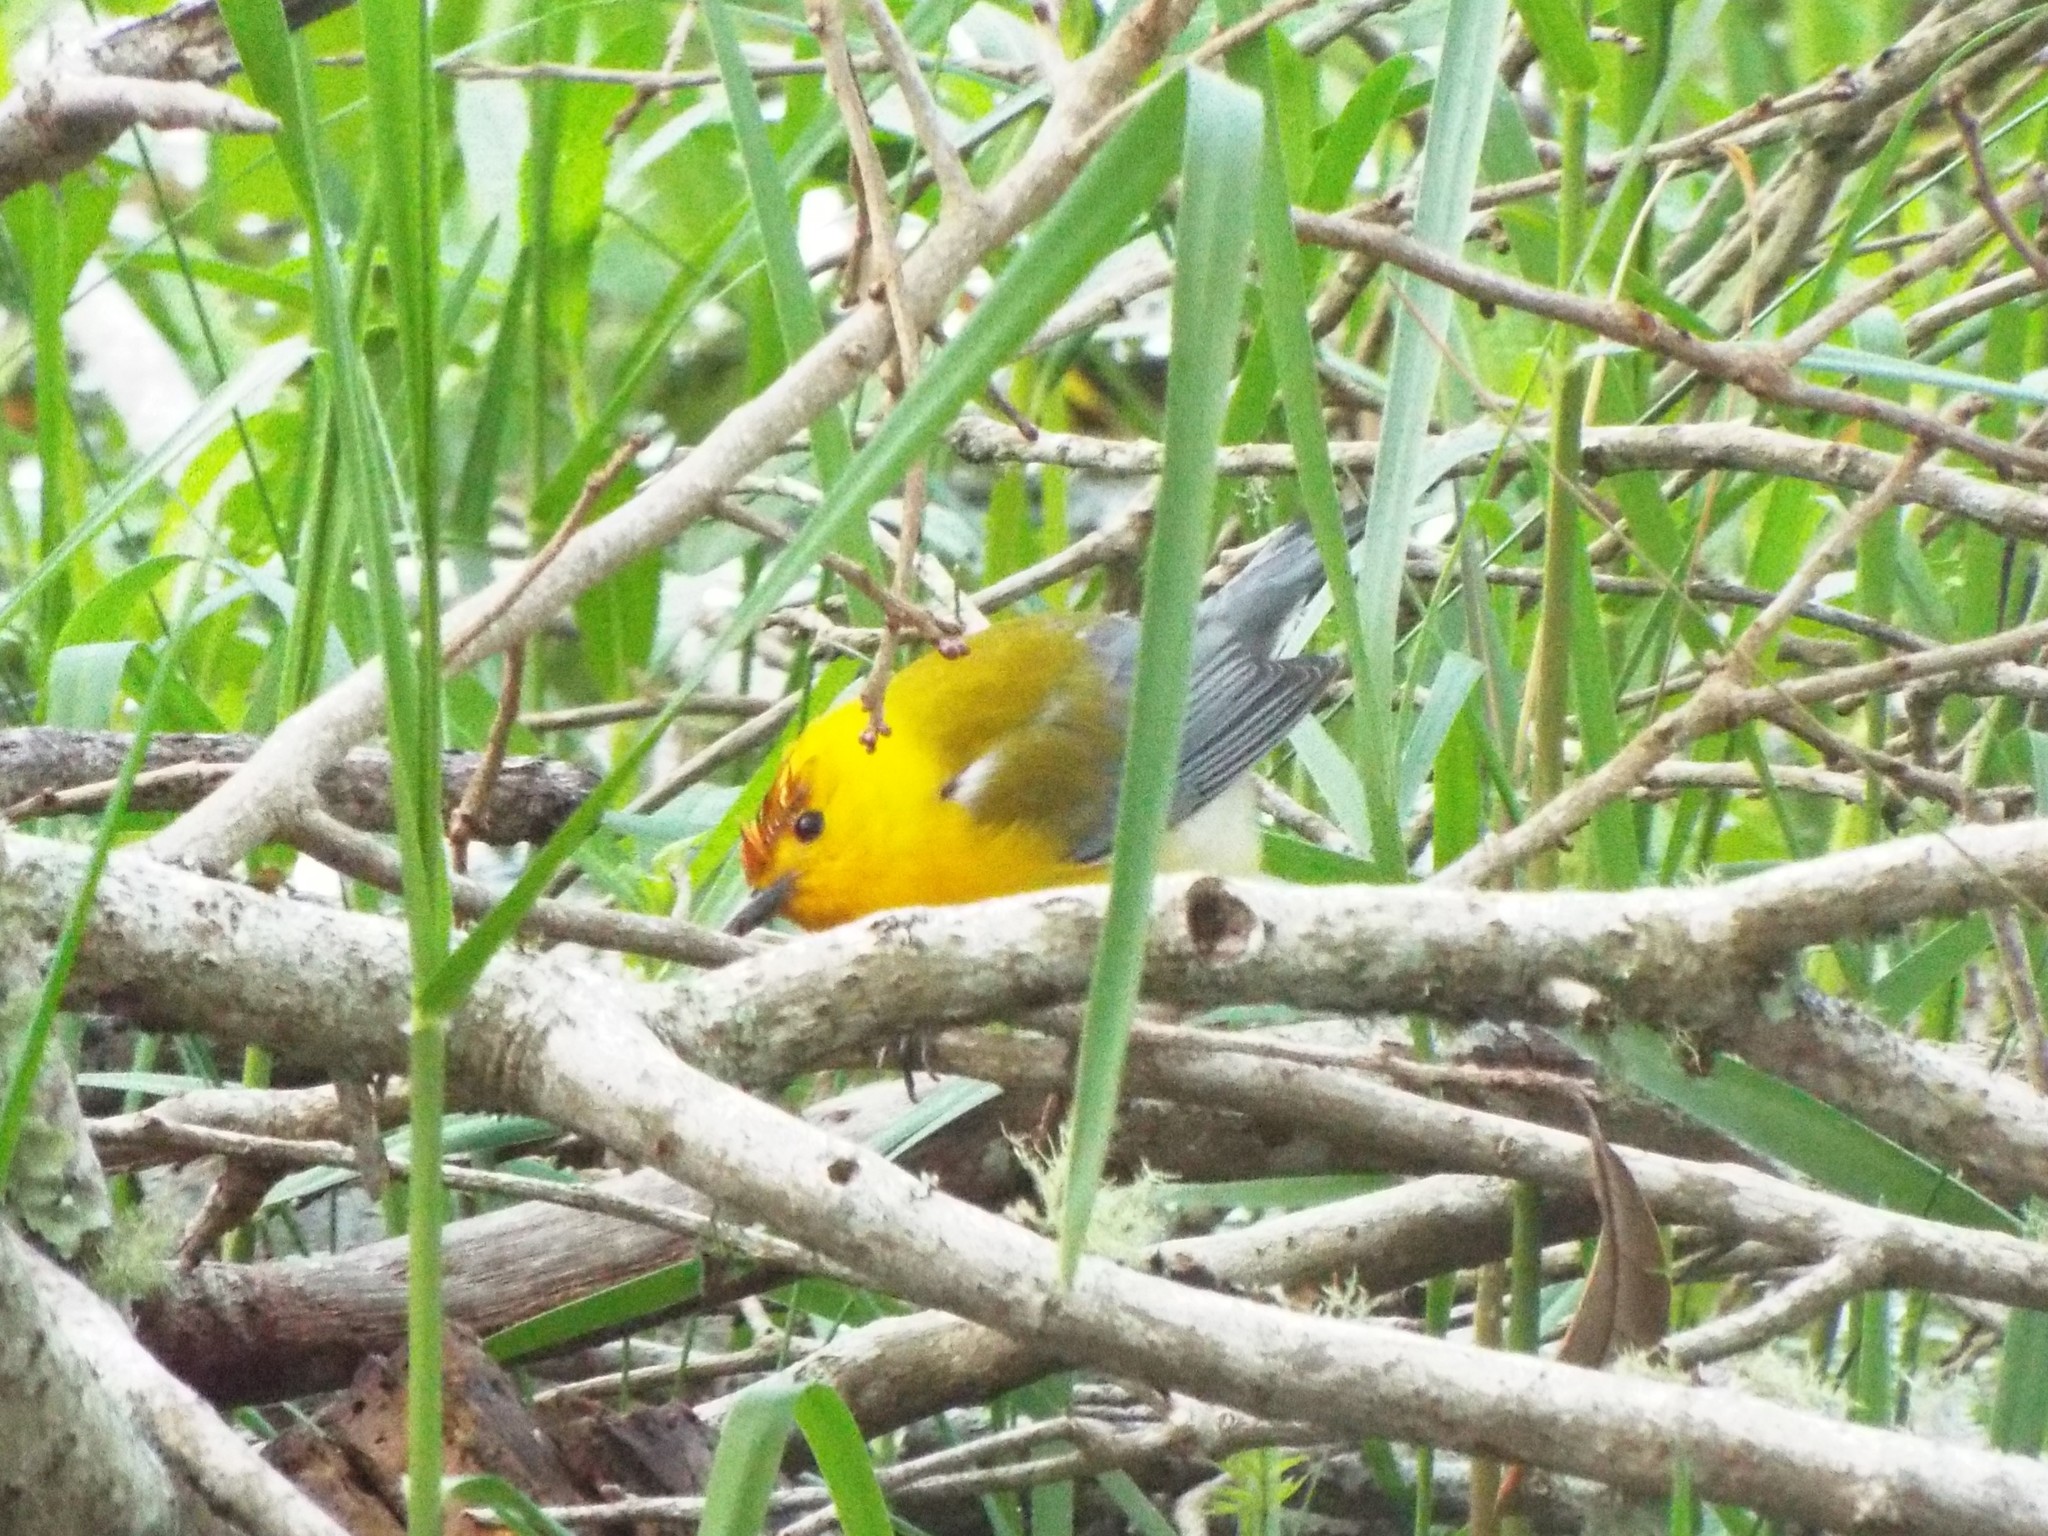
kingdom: Animalia
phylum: Chordata
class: Aves
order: Passeriformes
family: Parulidae
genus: Protonotaria
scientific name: Protonotaria citrea
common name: Prothonotary warbler
